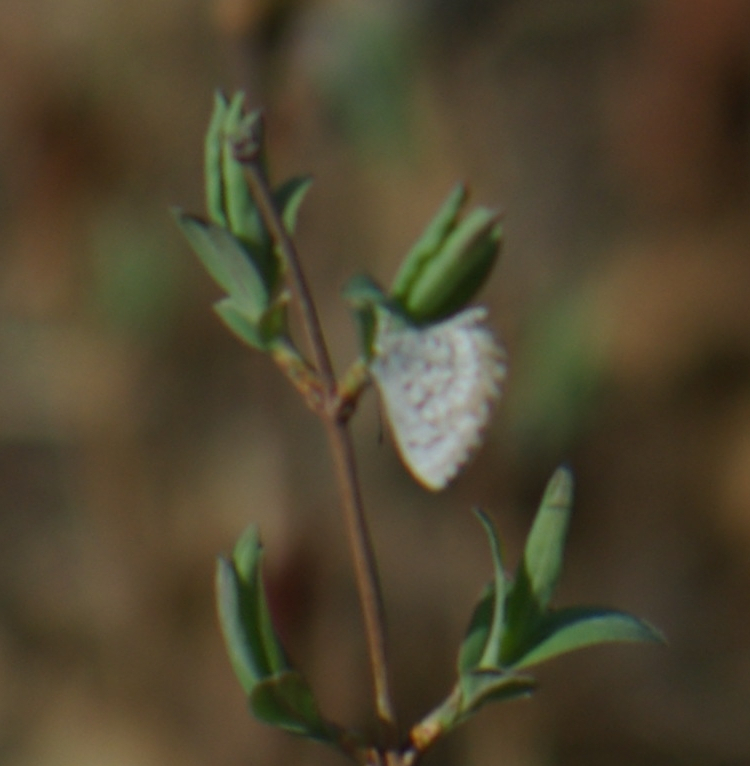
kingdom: Animalia
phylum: Arthropoda
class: Insecta
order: Lepidoptera
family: Lycaenidae
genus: Celastrina
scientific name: Celastrina lucia
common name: Lucia azure
